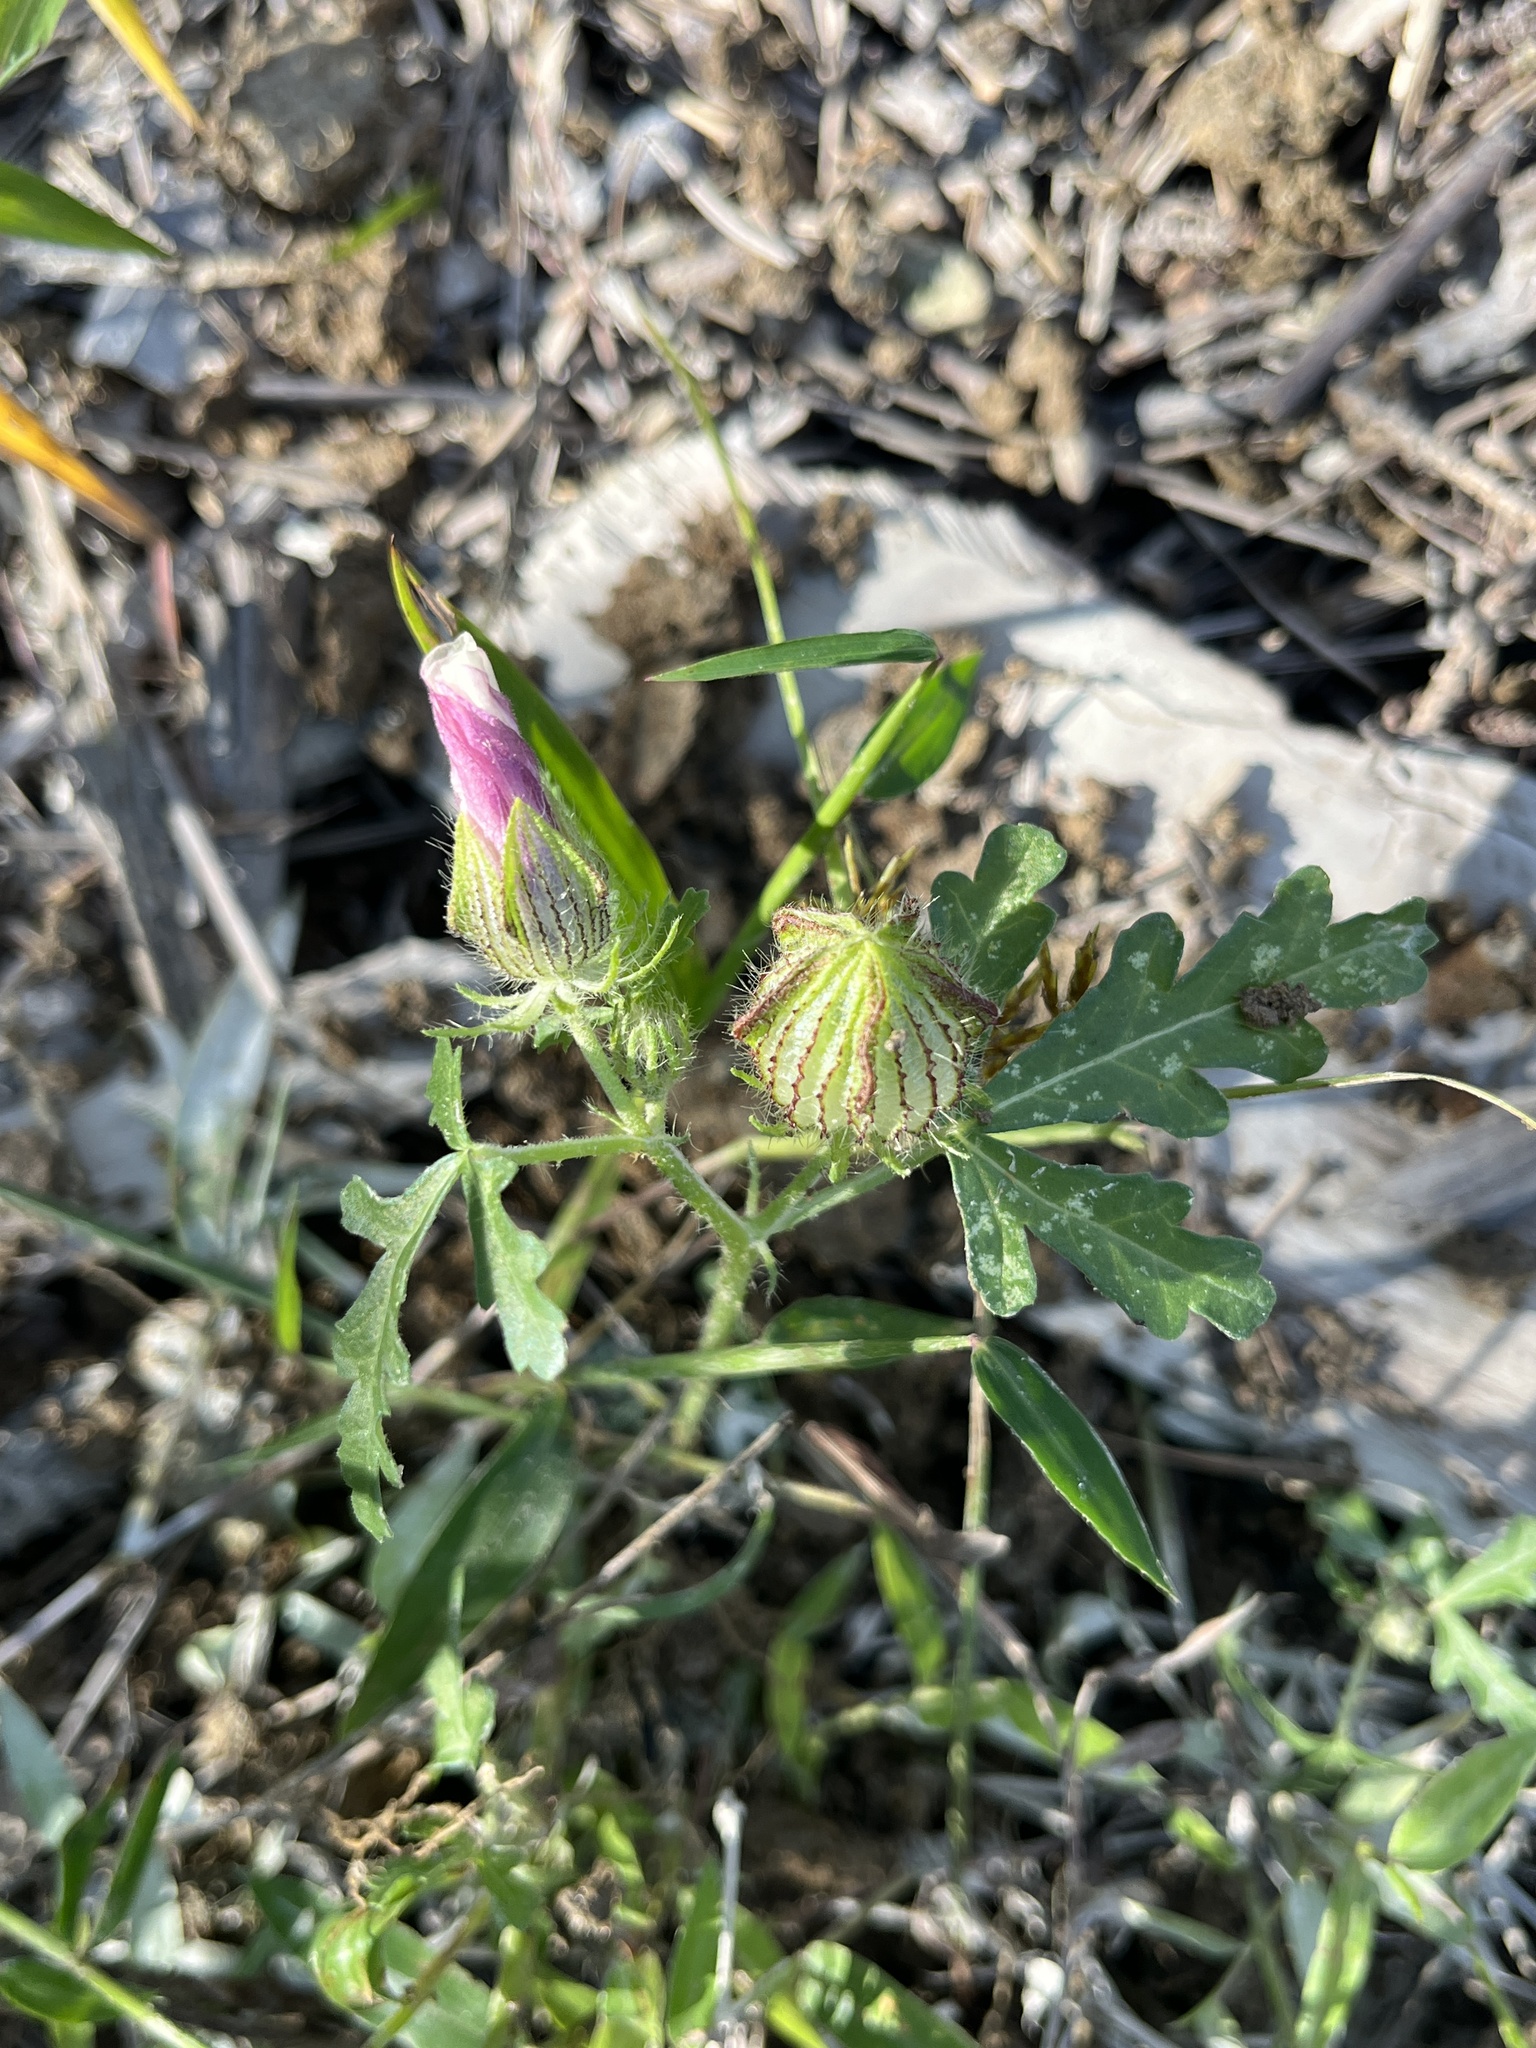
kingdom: Plantae
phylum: Tracheophyta
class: Magnoliopsida
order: Malvales
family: Malvaceae
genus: Hibiscus
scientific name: Hibiscus trionum
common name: Bladder ketmia
